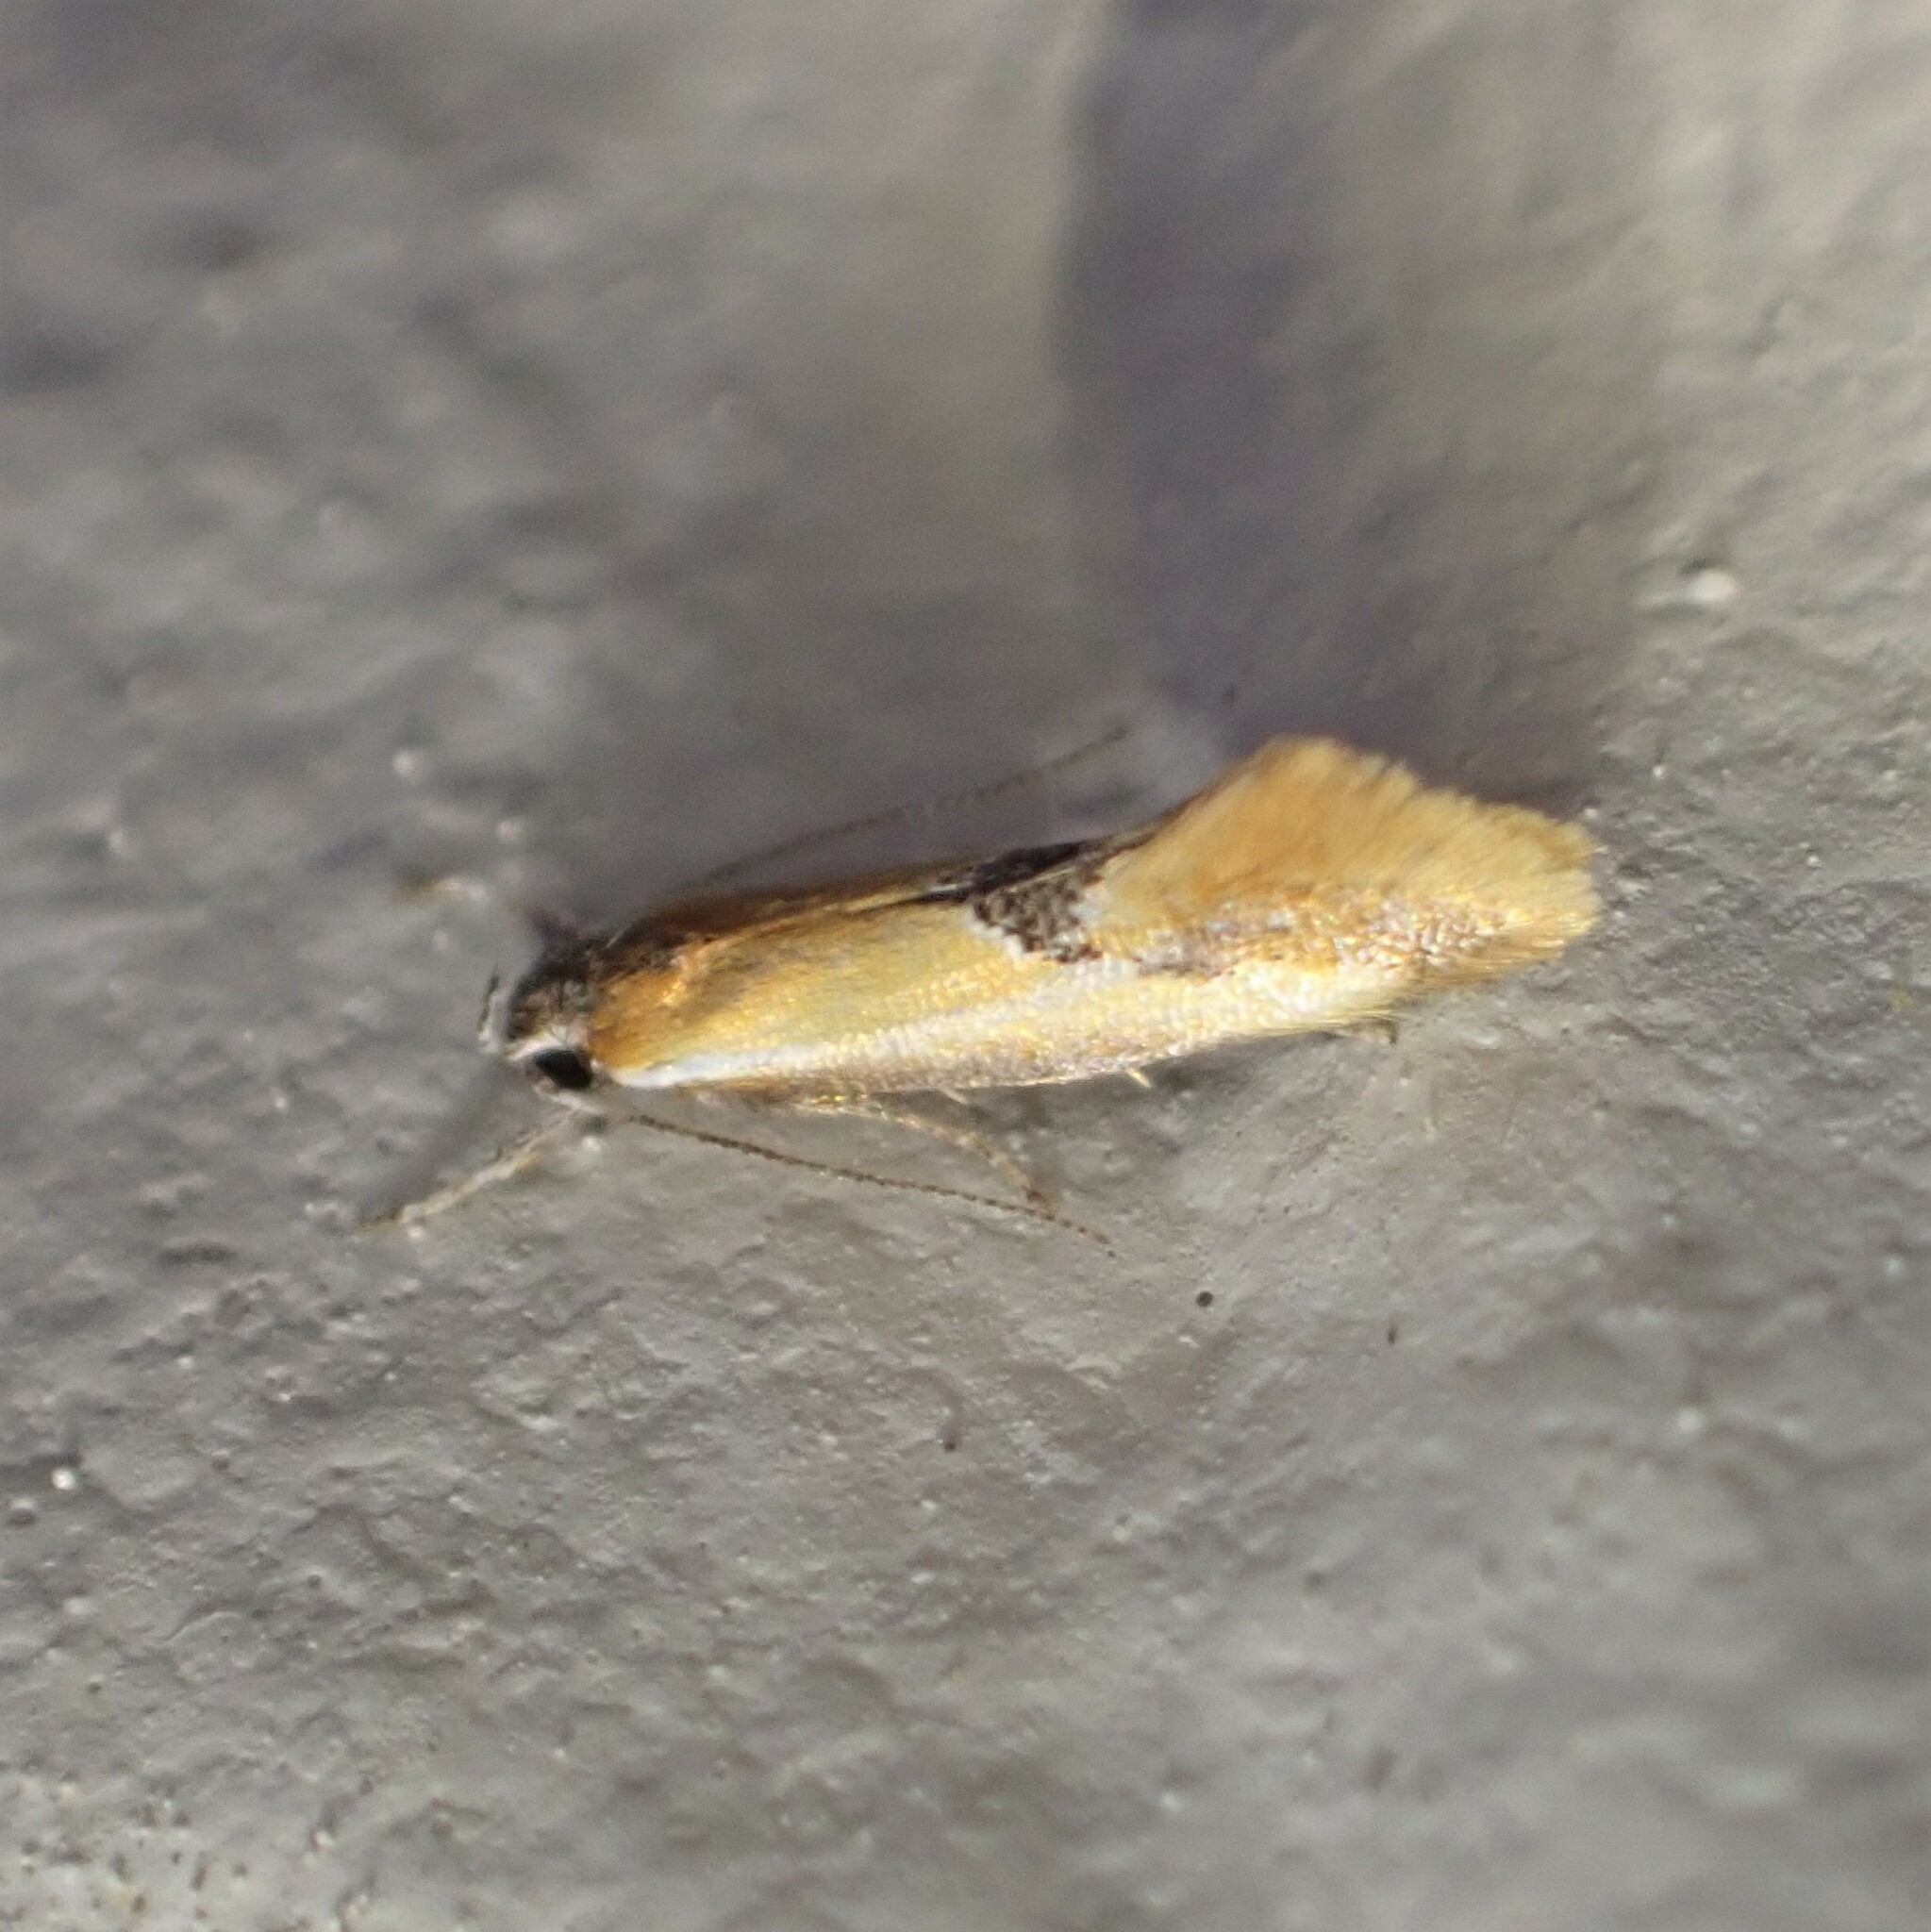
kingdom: Animalia
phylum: Arthropoda
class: Insecta
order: Lepidoptera
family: Oecophoridae
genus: Batia
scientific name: Batia lunaris
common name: Moth
